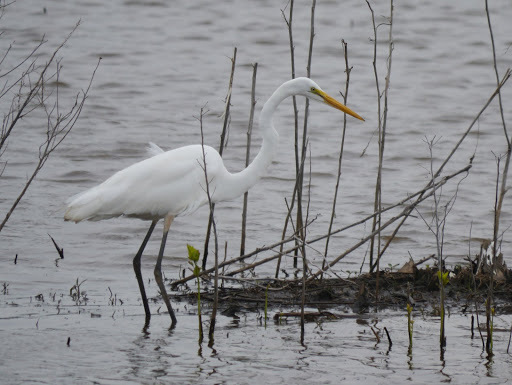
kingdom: Animalia
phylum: Chordata
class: Aves
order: Pelecaniformes
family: Ardeidae
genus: Ardea
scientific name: Ardea alba
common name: Great egret
